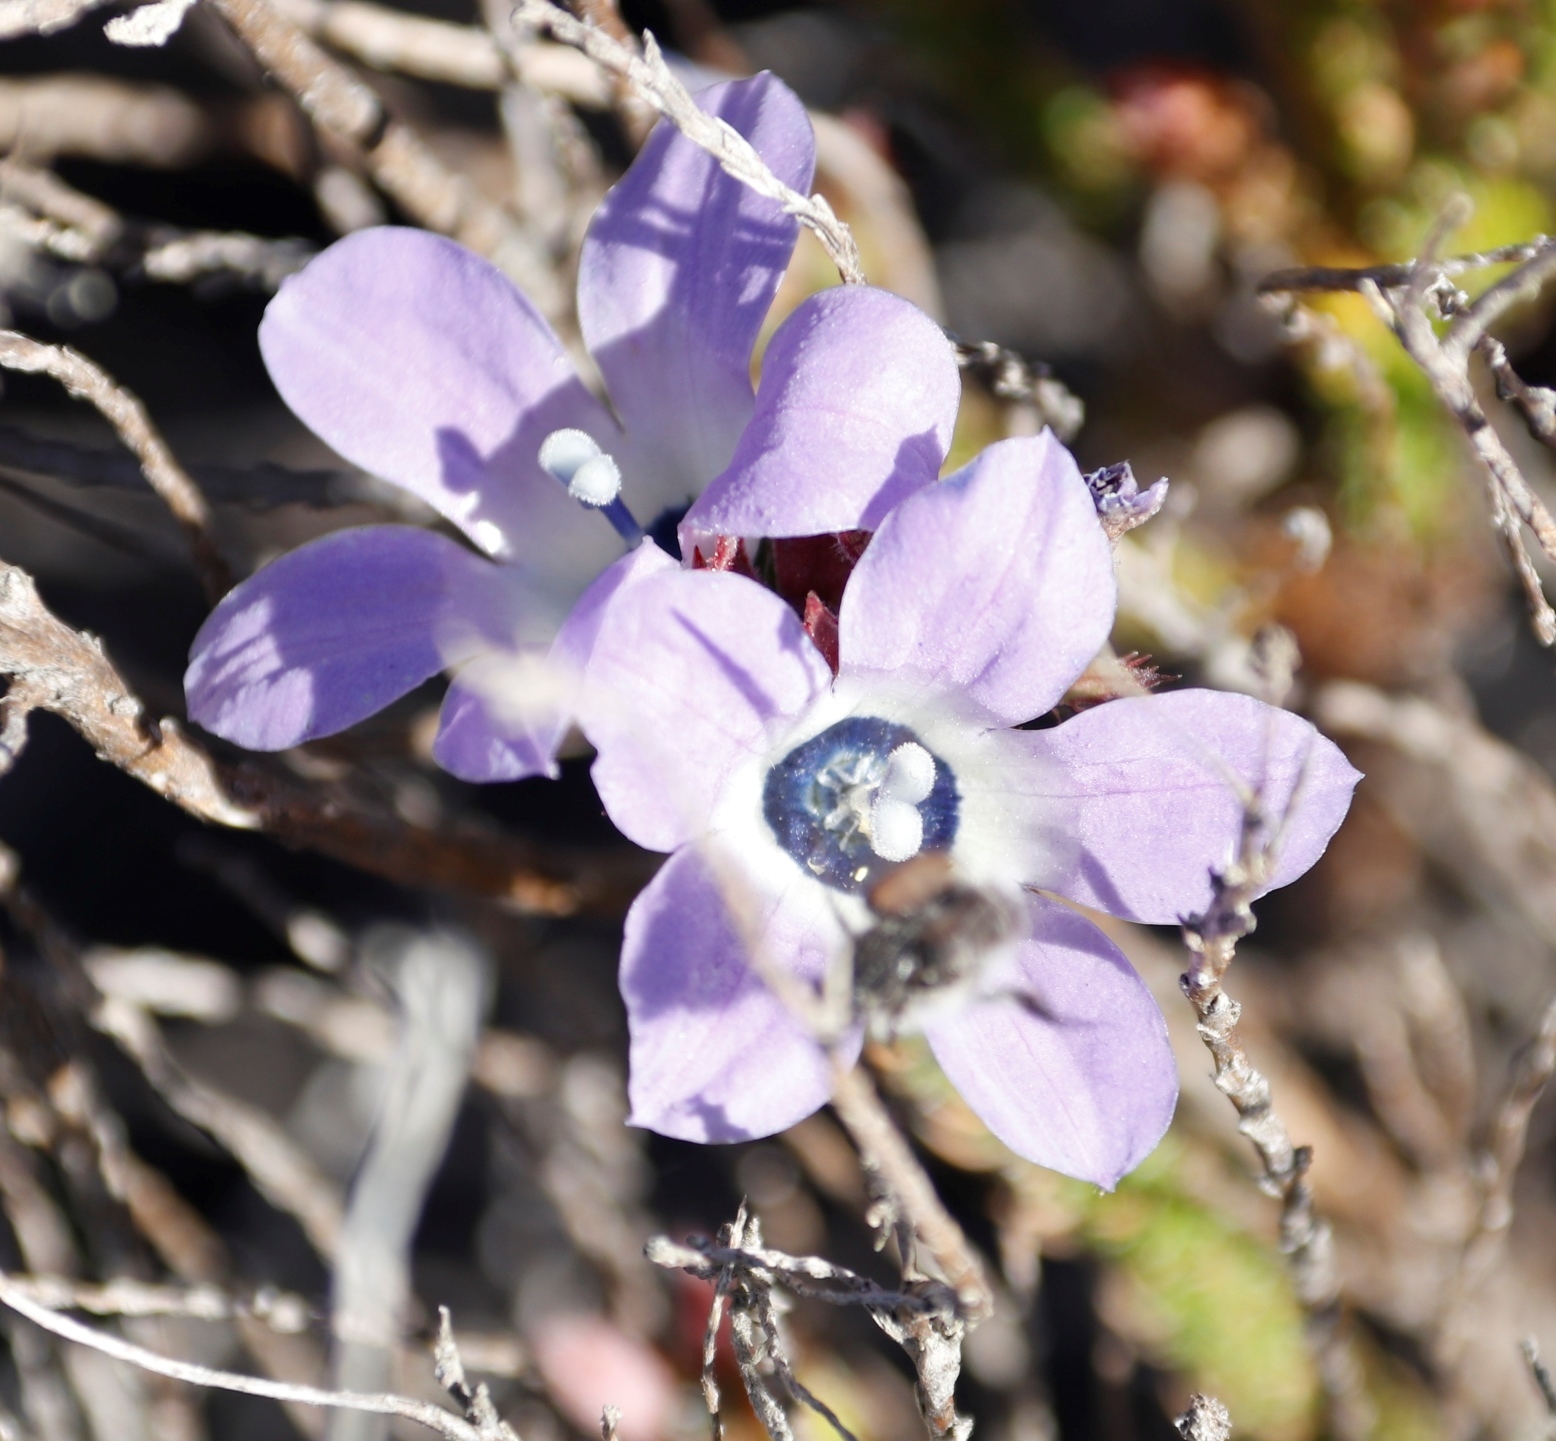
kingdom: Plantae
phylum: Tracheophyta
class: Magnoliopsida
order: Asterales
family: Campanulaceae
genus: Roella
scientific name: Roella triflora
